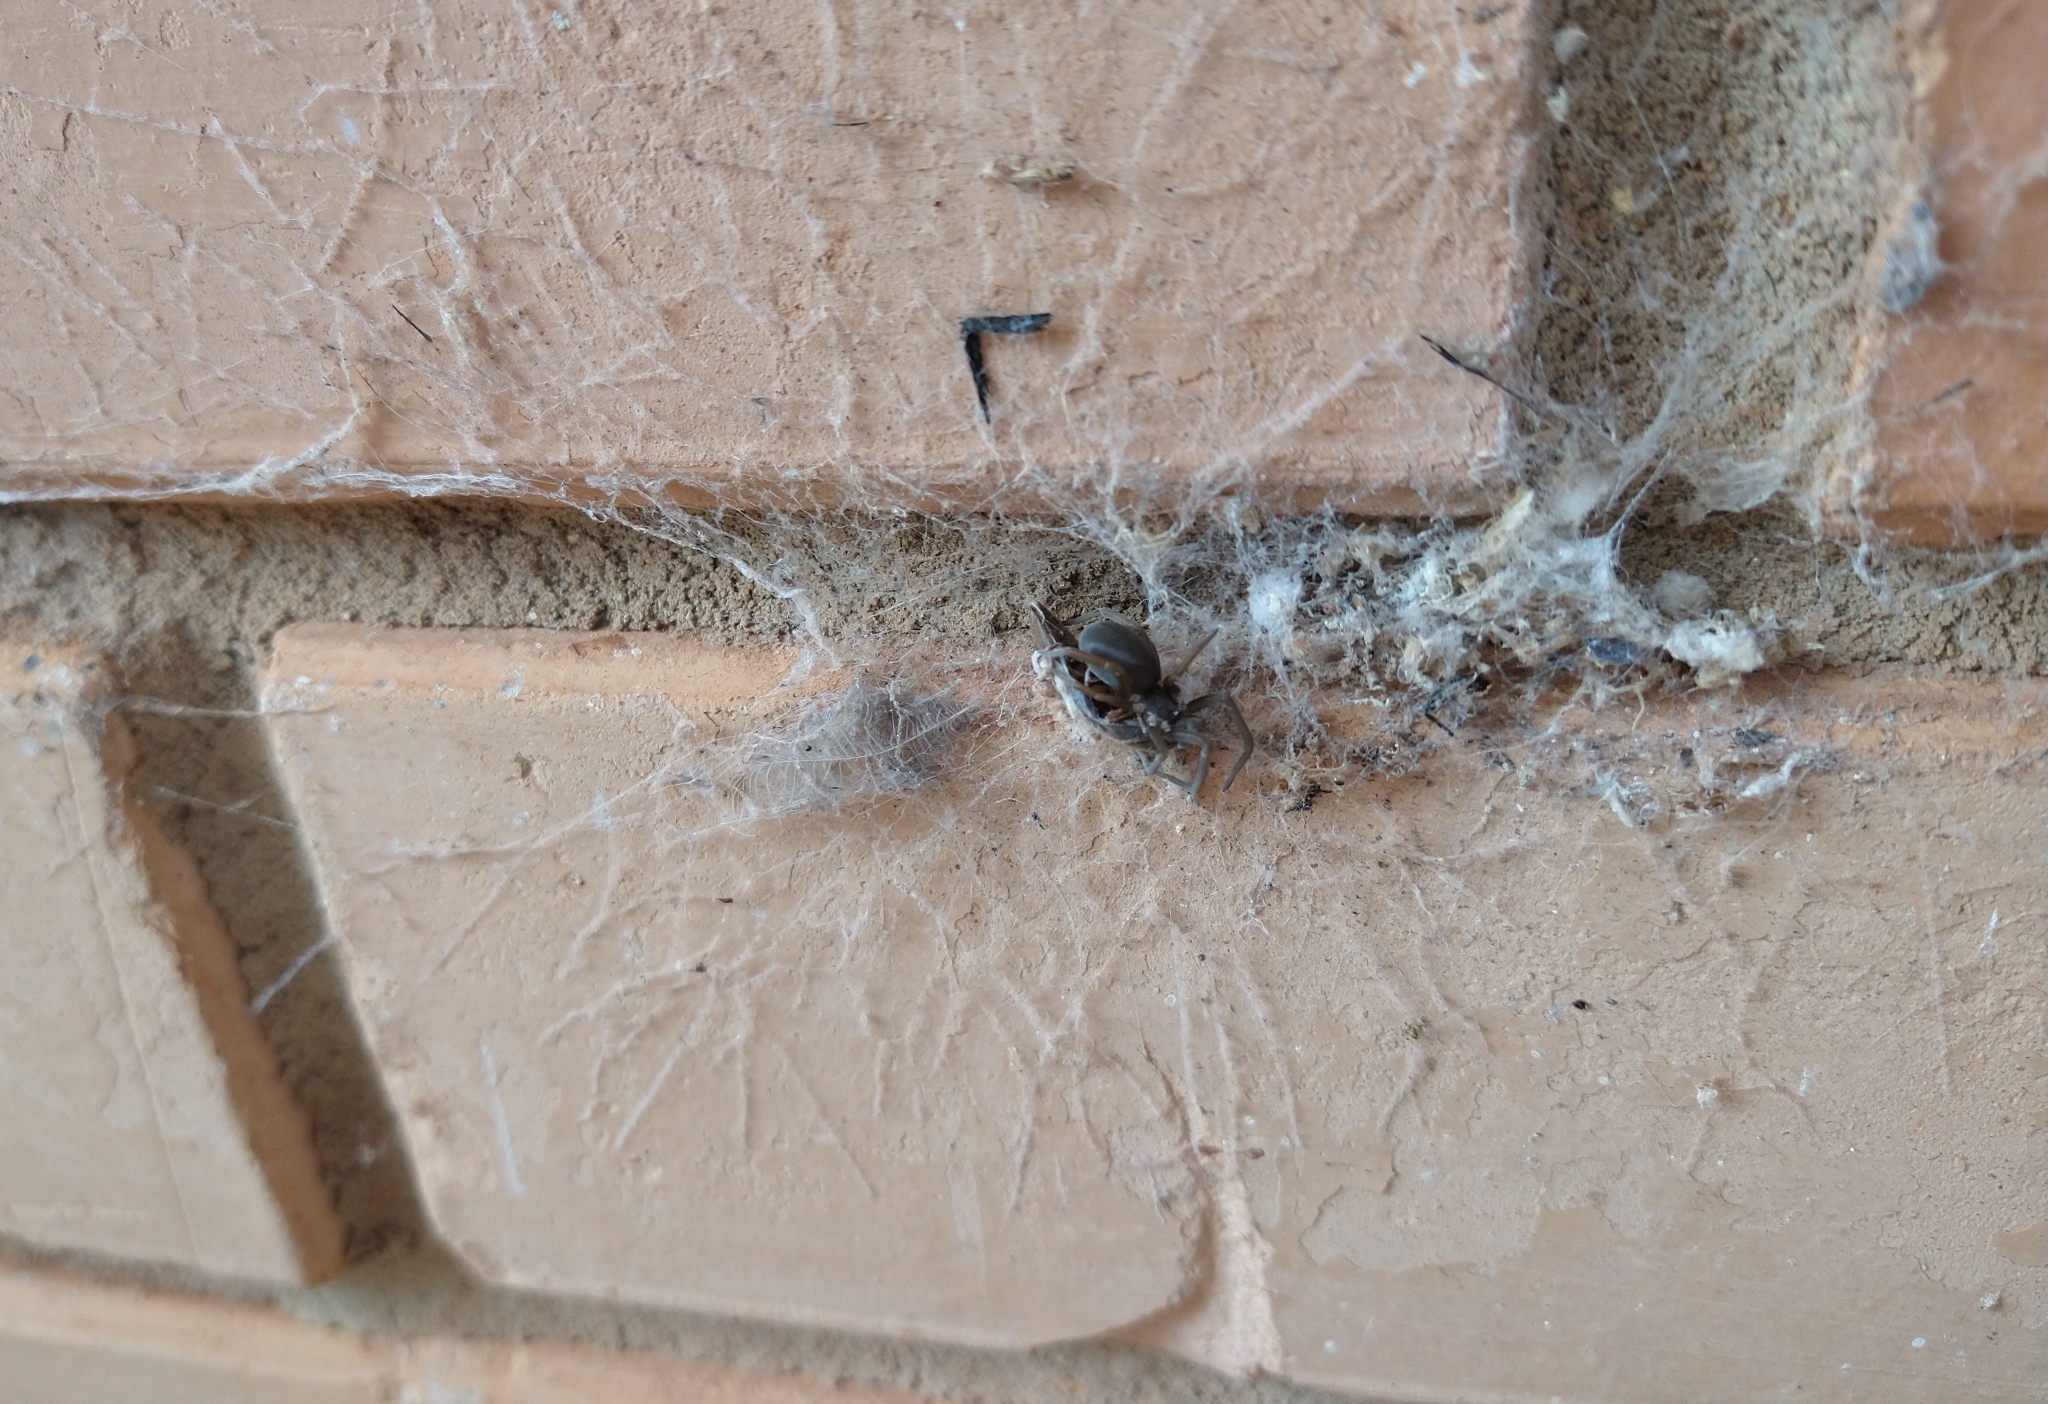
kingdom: Animalia
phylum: Arthropoda
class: Arachnida
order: Araneae
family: Filistatidae
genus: Kukulcania
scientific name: Kukulcania hibernalis
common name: Crevice weaver
